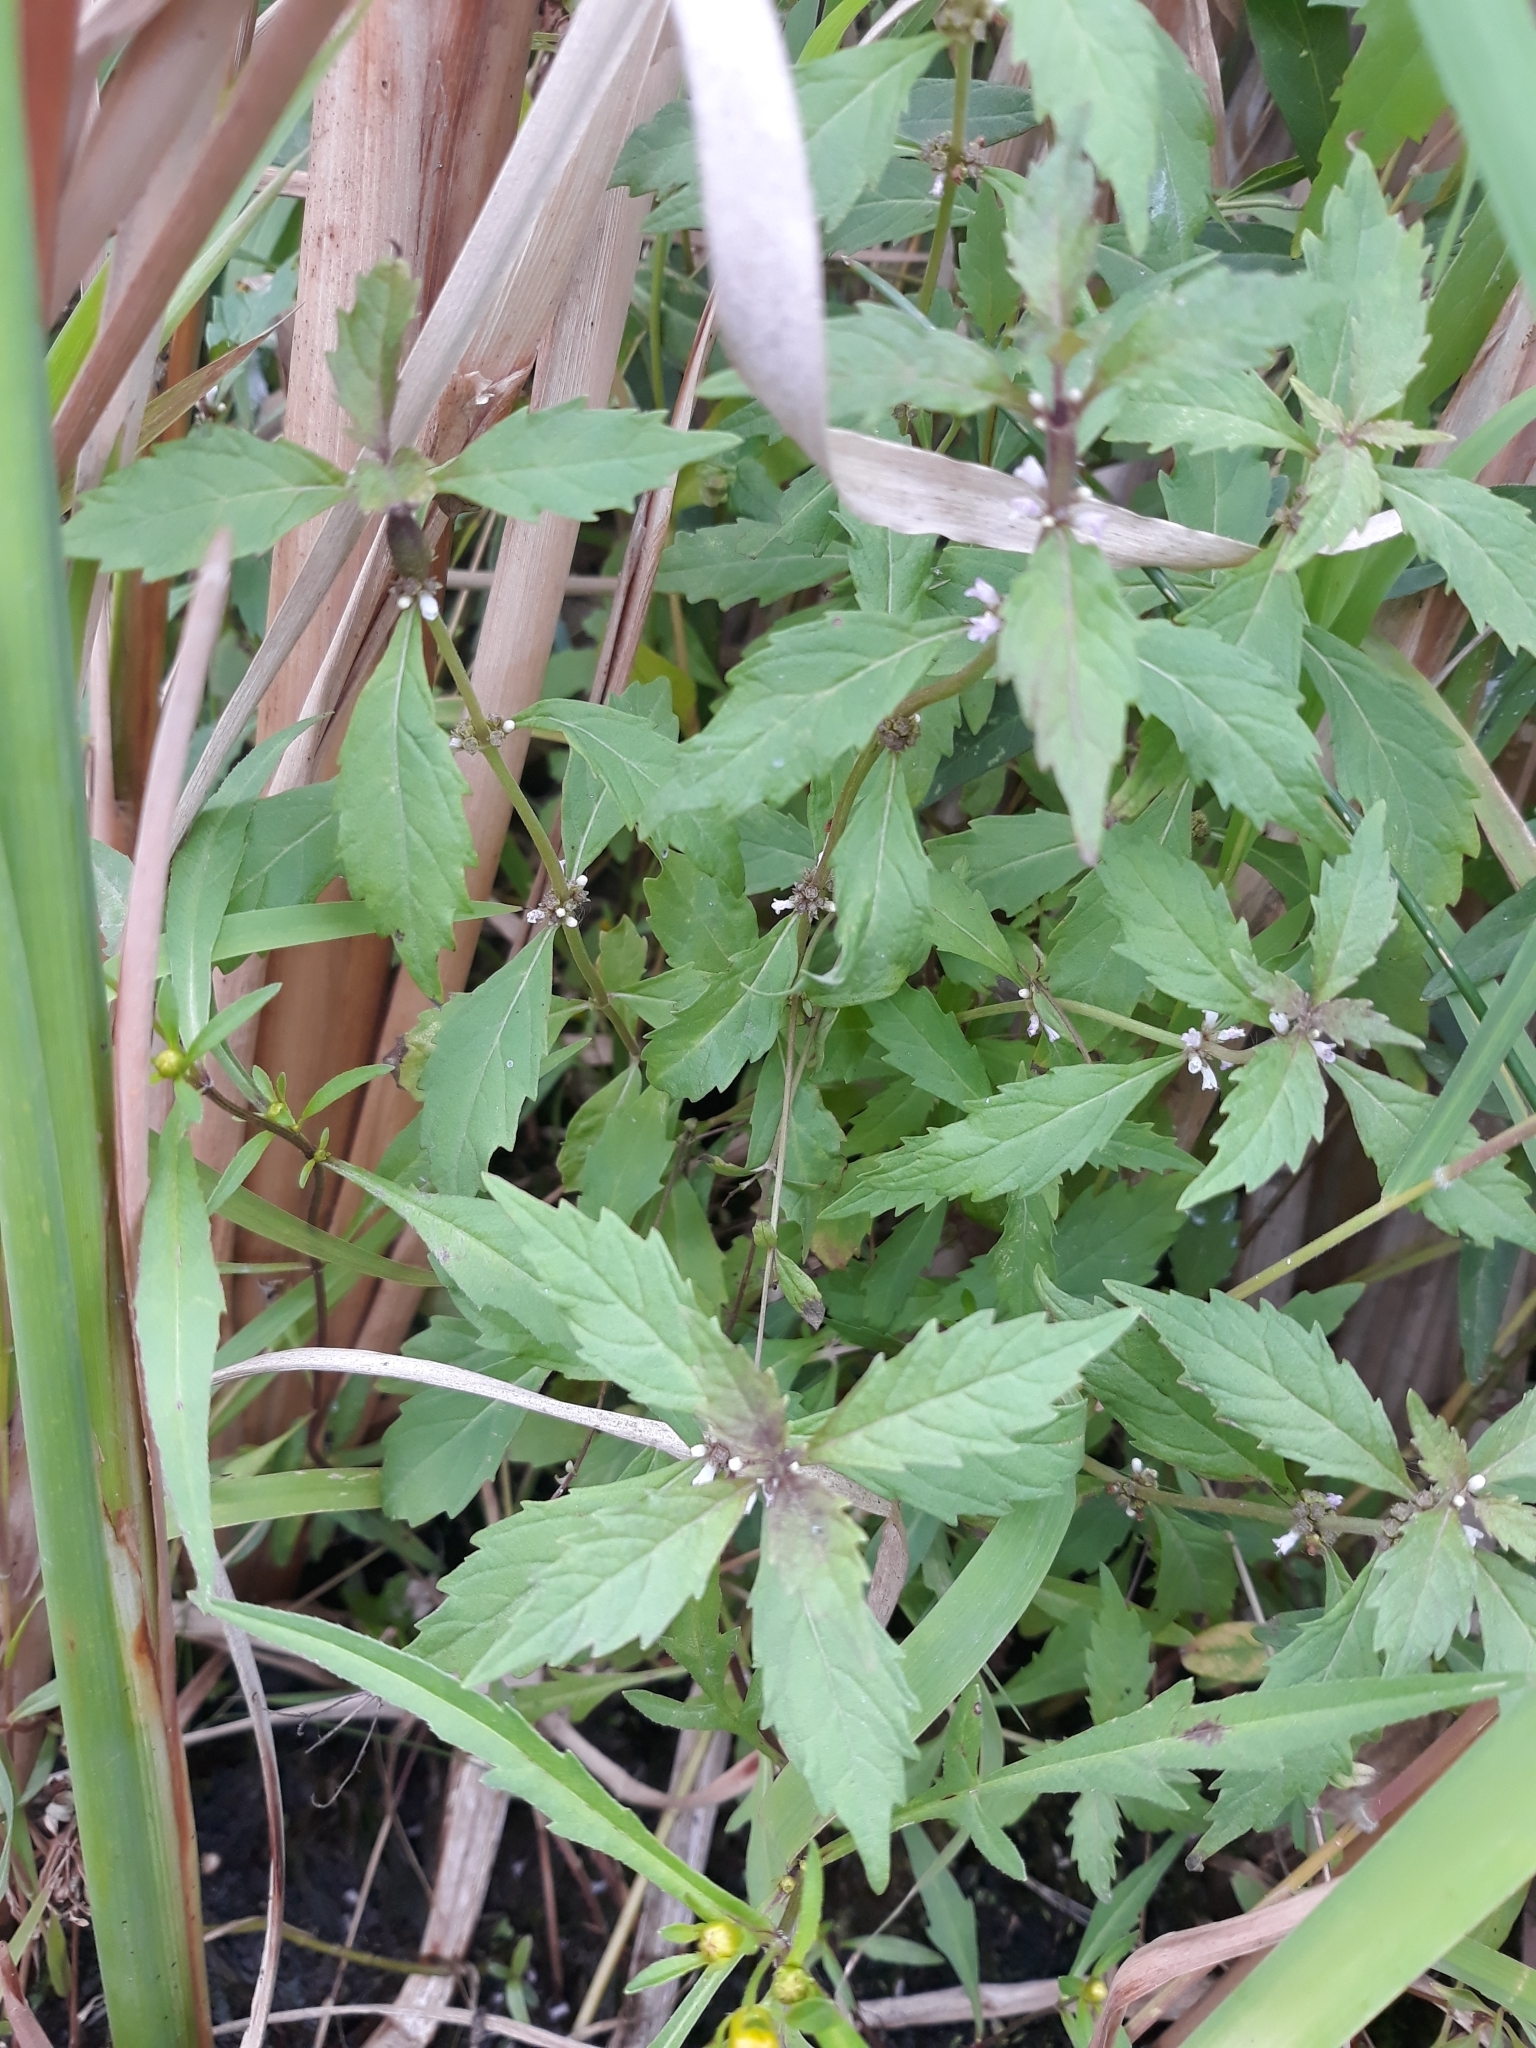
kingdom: Plantae
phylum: Tracheophyta
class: Magnoliopsida
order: Lamiales
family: Lamiaceae
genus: Lycopus
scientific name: Lycopus uniflorus
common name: Northern bugleweed
